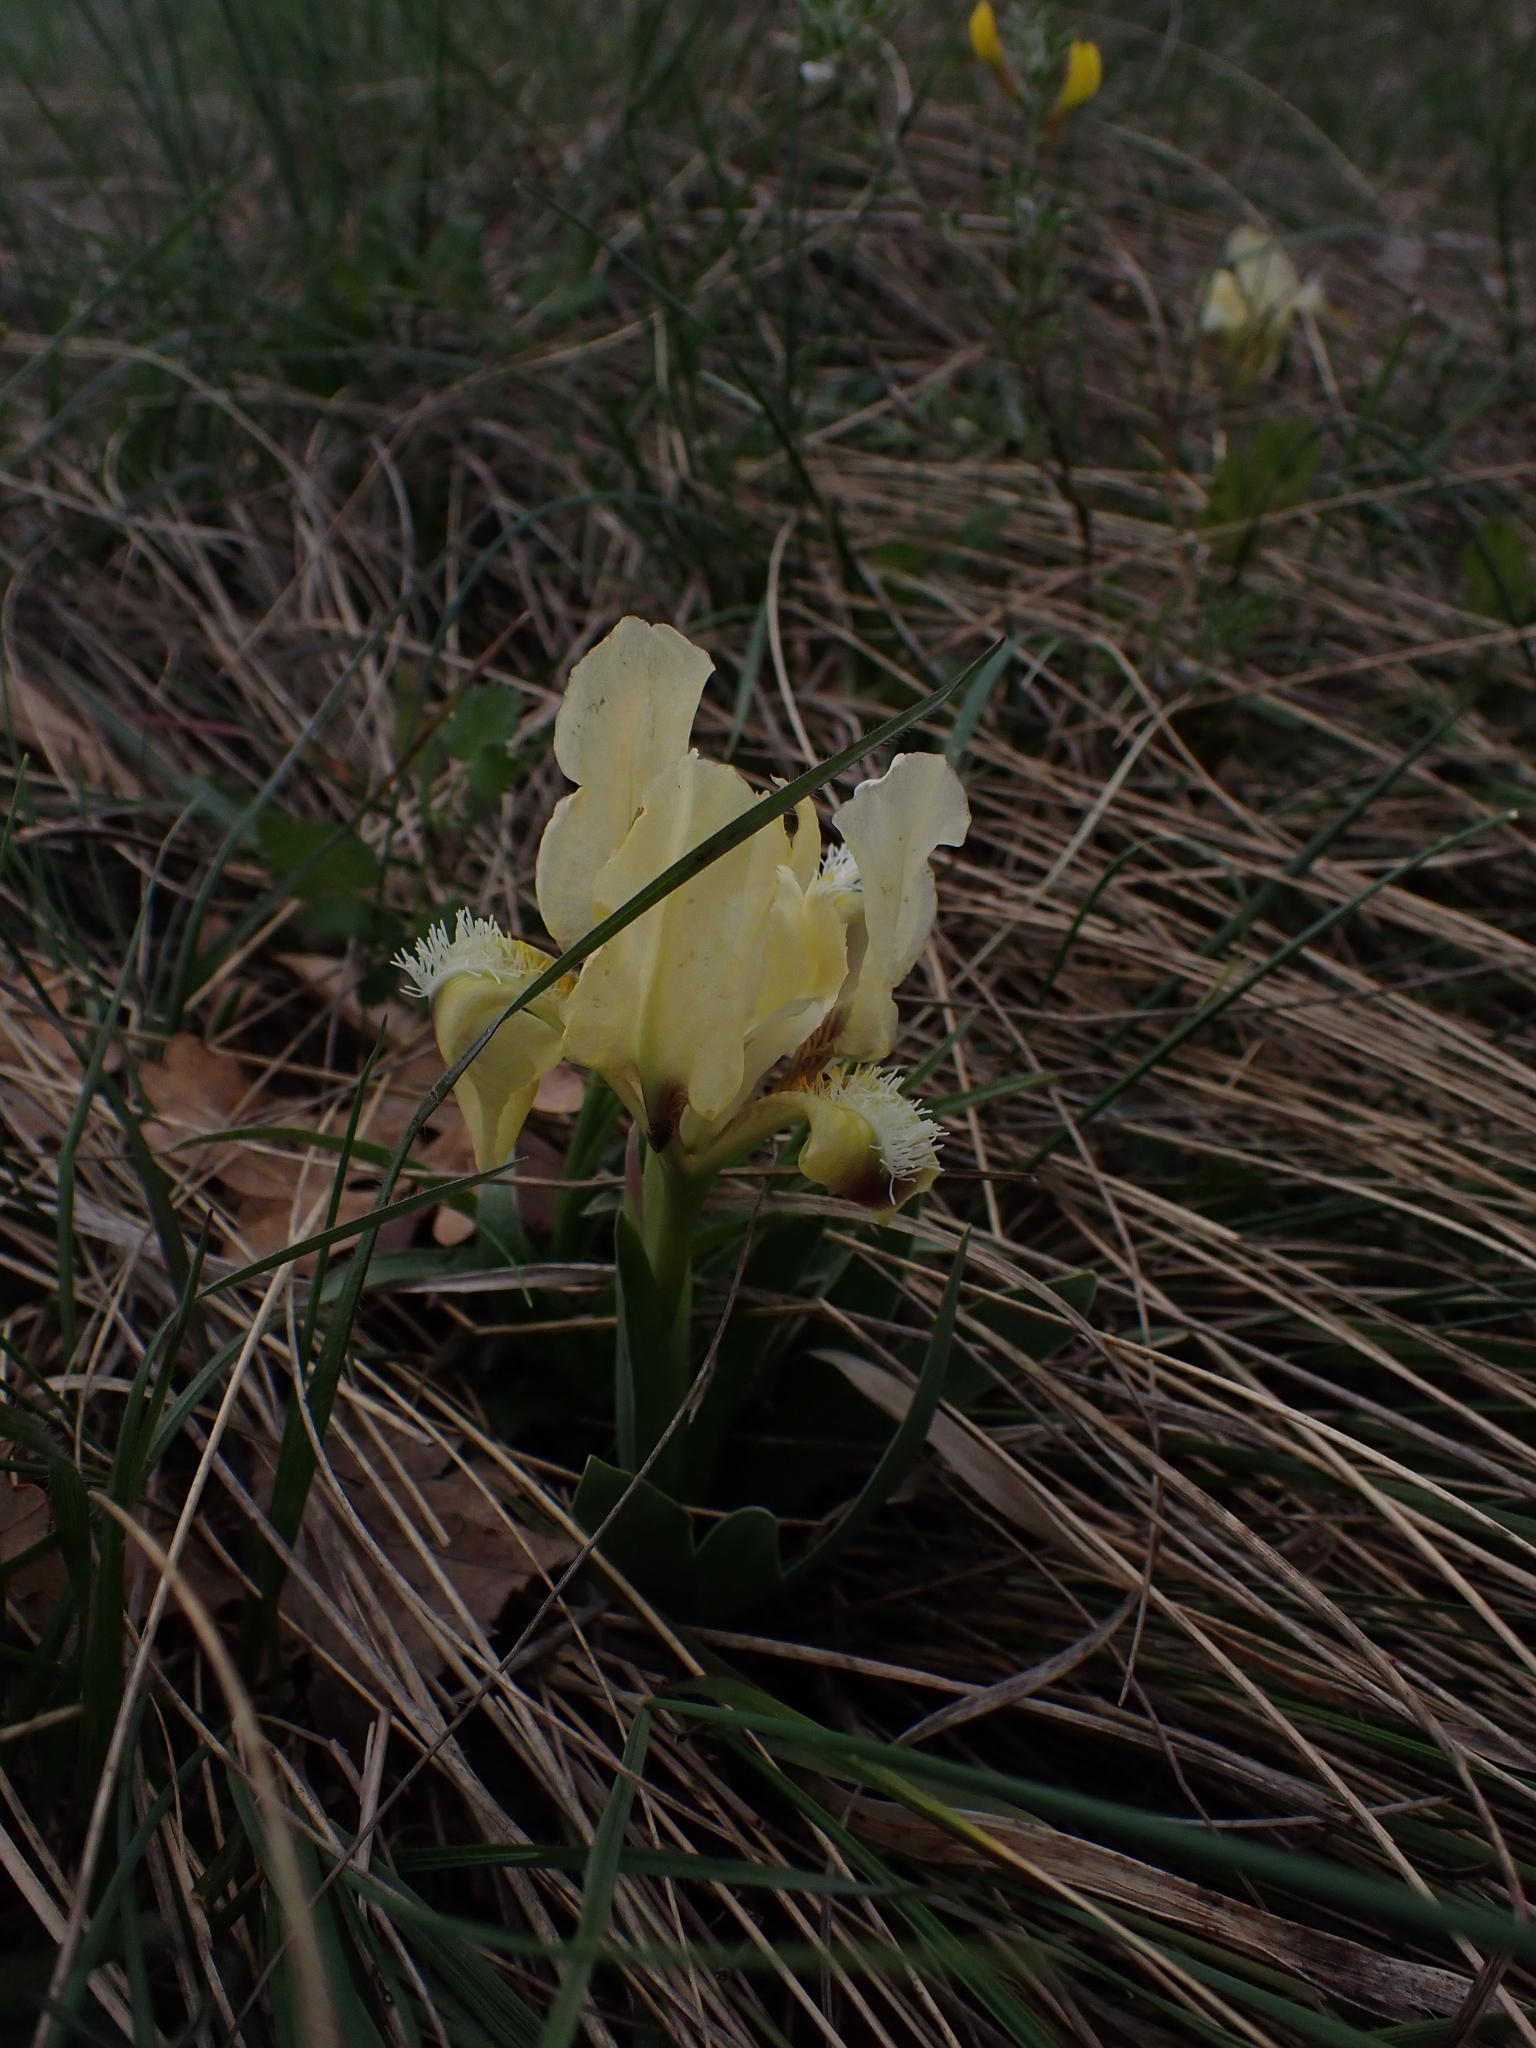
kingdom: Plantae
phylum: Tracheophyta
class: Liliopsida
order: Asparagales
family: Iridaceae
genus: Iris
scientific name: Iris pumila
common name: Dwarf iris
